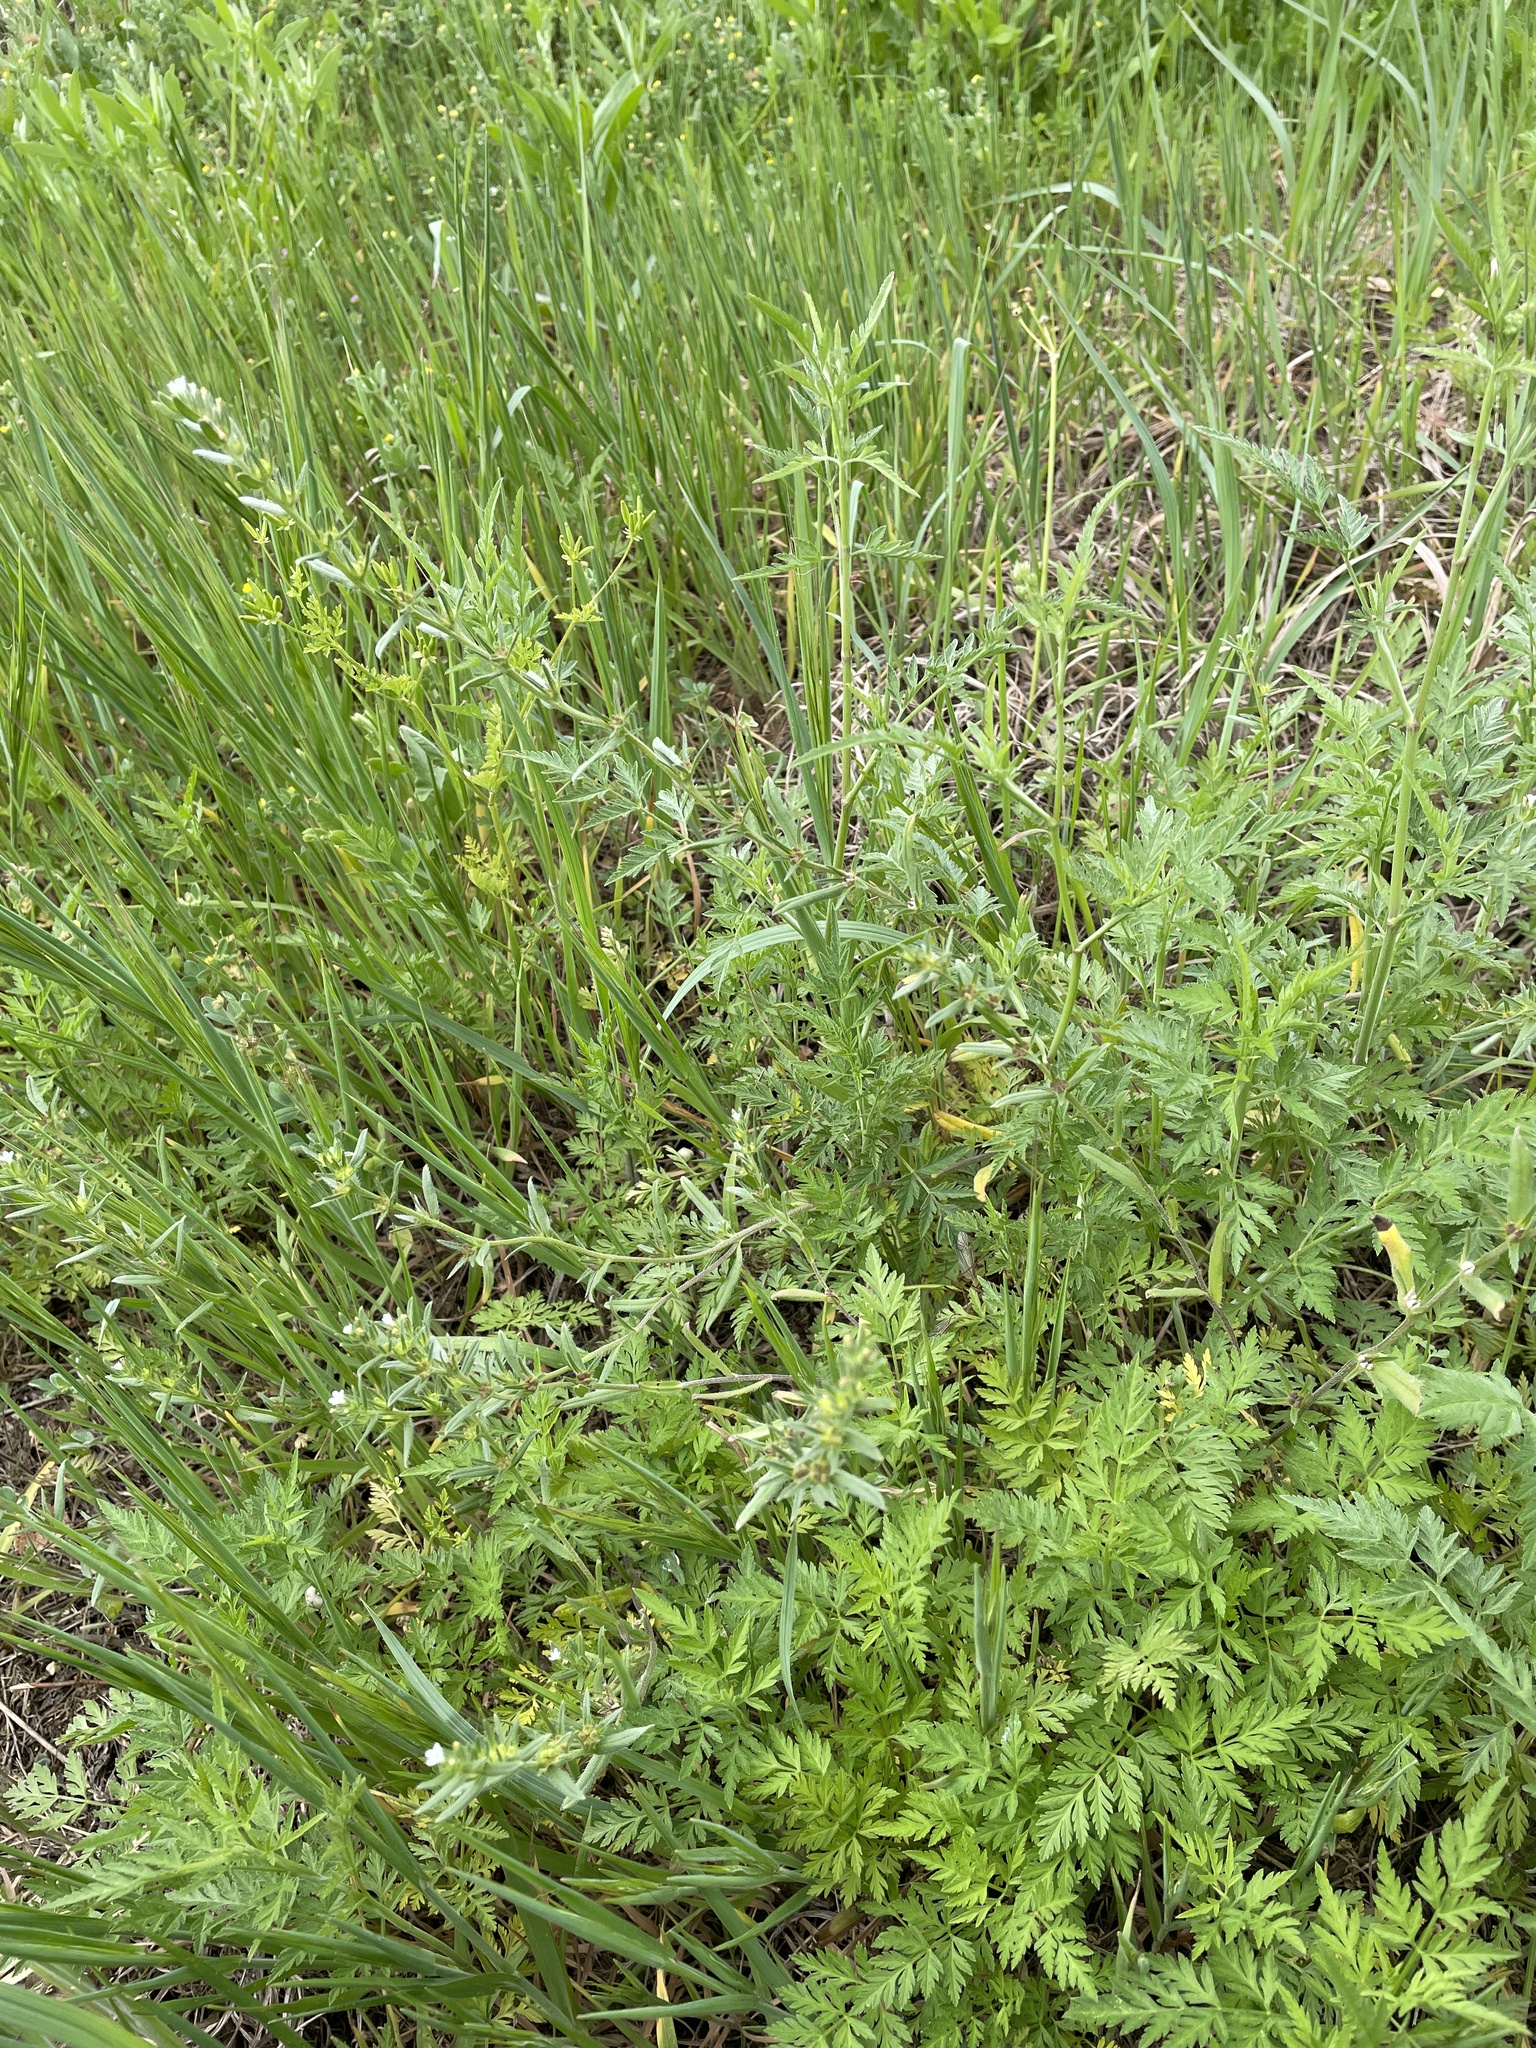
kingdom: Plantae
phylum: Tracheophyta
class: Magnoliopsida
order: Boraginales
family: Boraginaceae
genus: Buglossoides
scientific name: Buglossoides arvensis
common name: Corn gromwell
